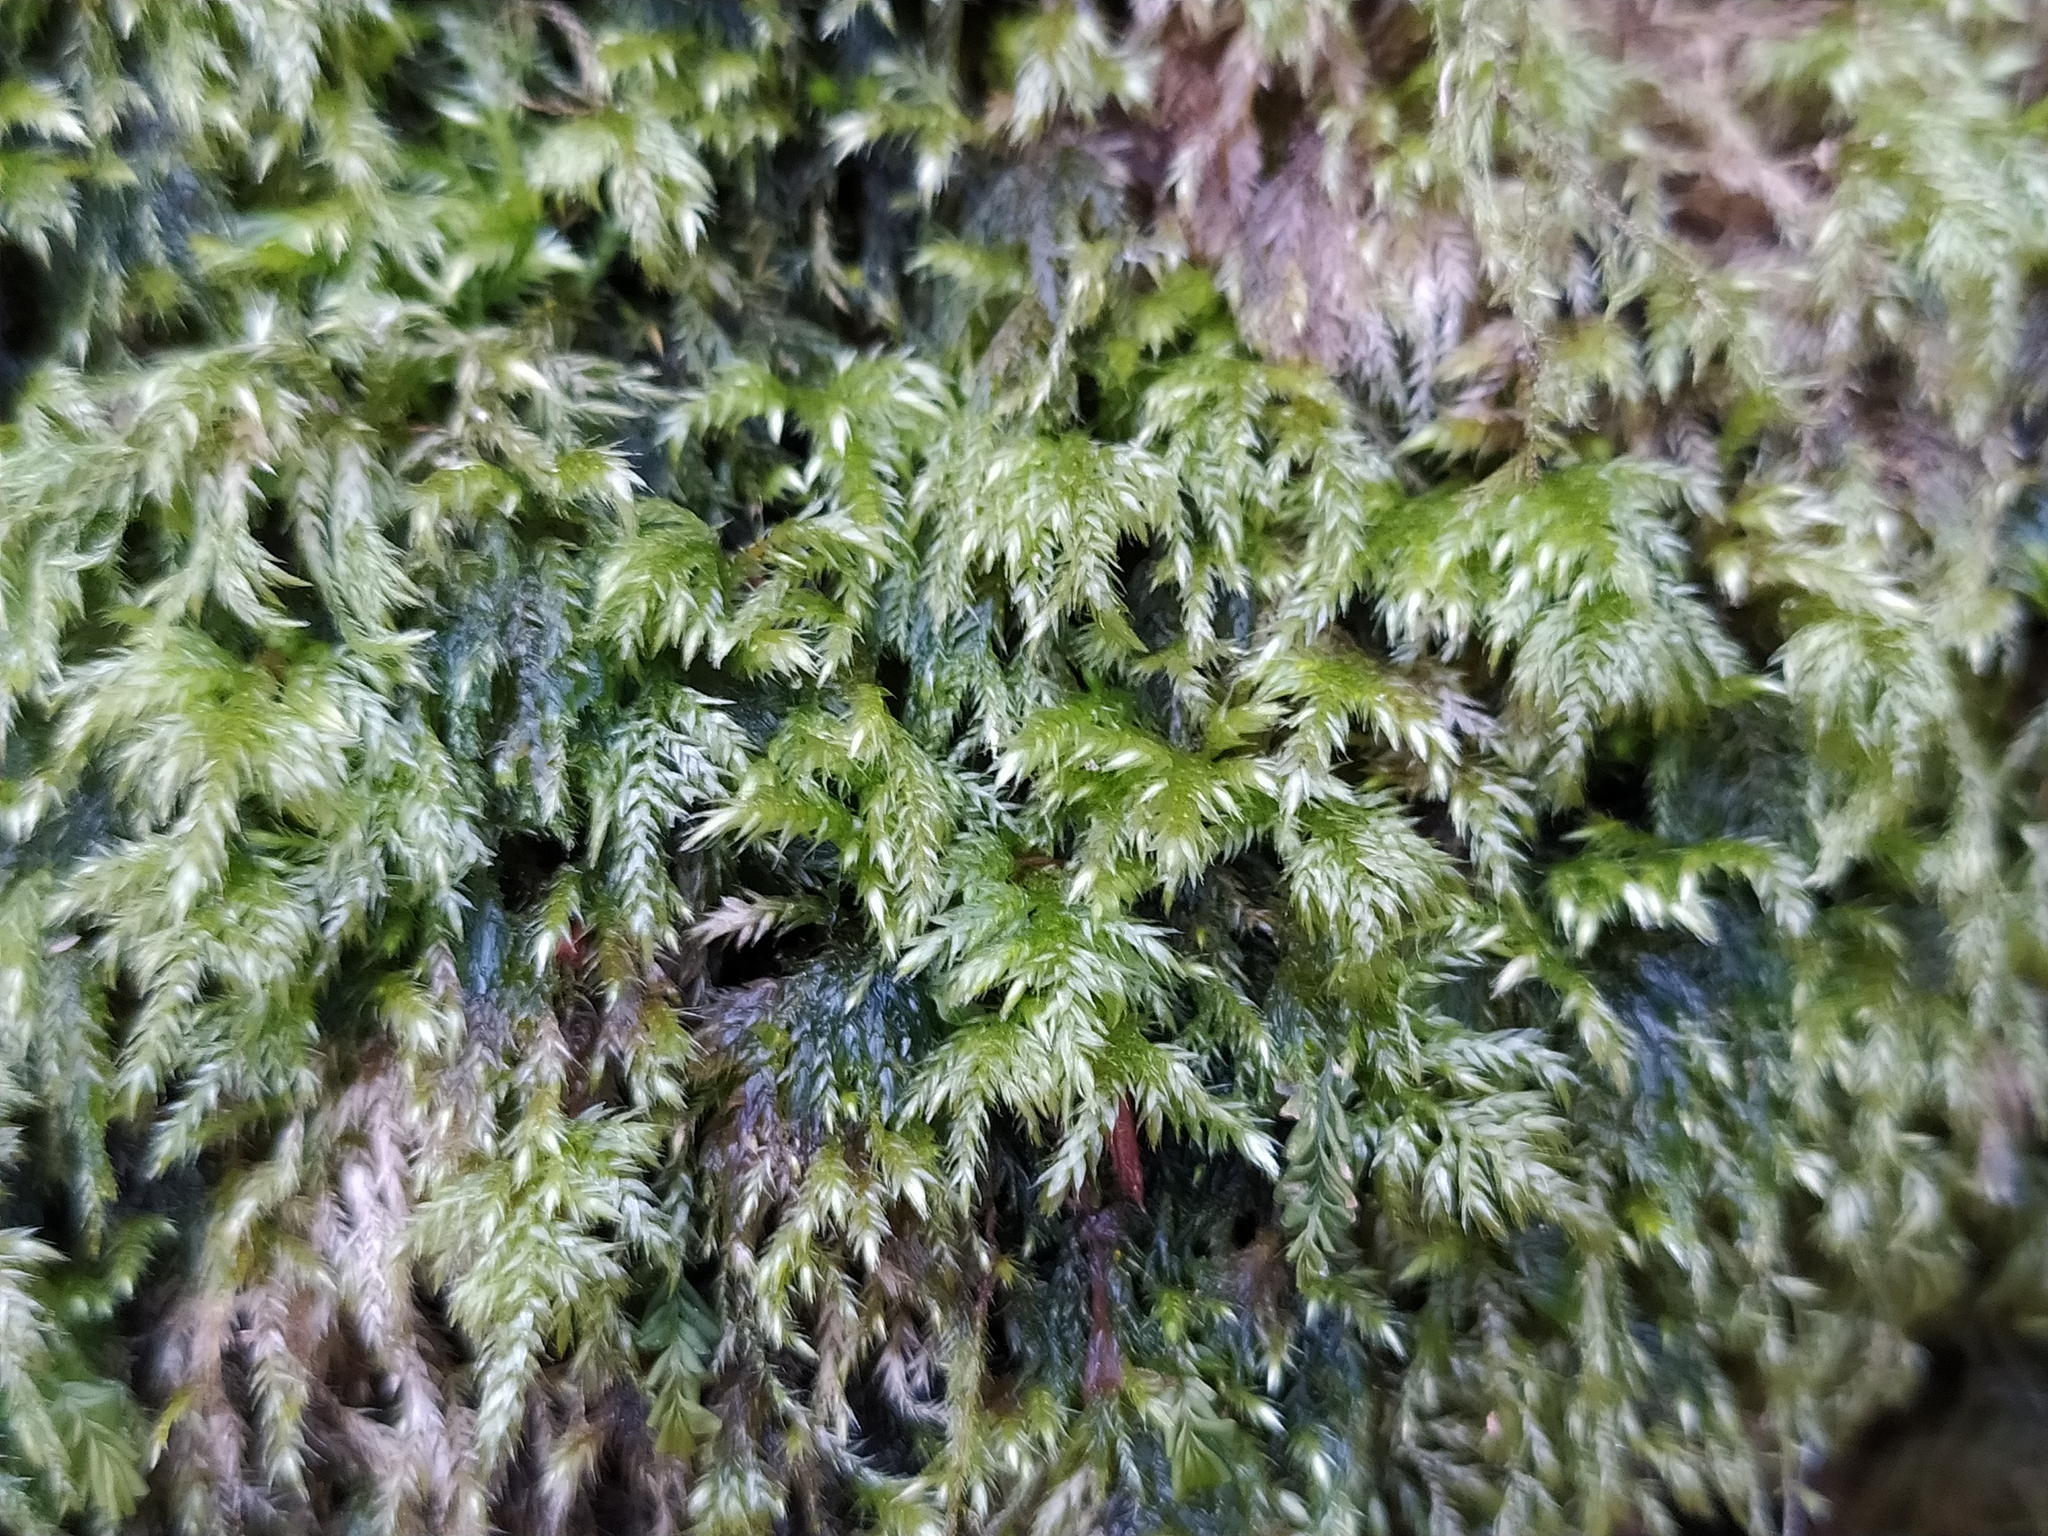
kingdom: Plantae
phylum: Bryophyta
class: Bryopsida
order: Hypnales
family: Lembophyllaceae
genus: Pseudisothecium
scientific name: Pseudisothecium myosuroides
